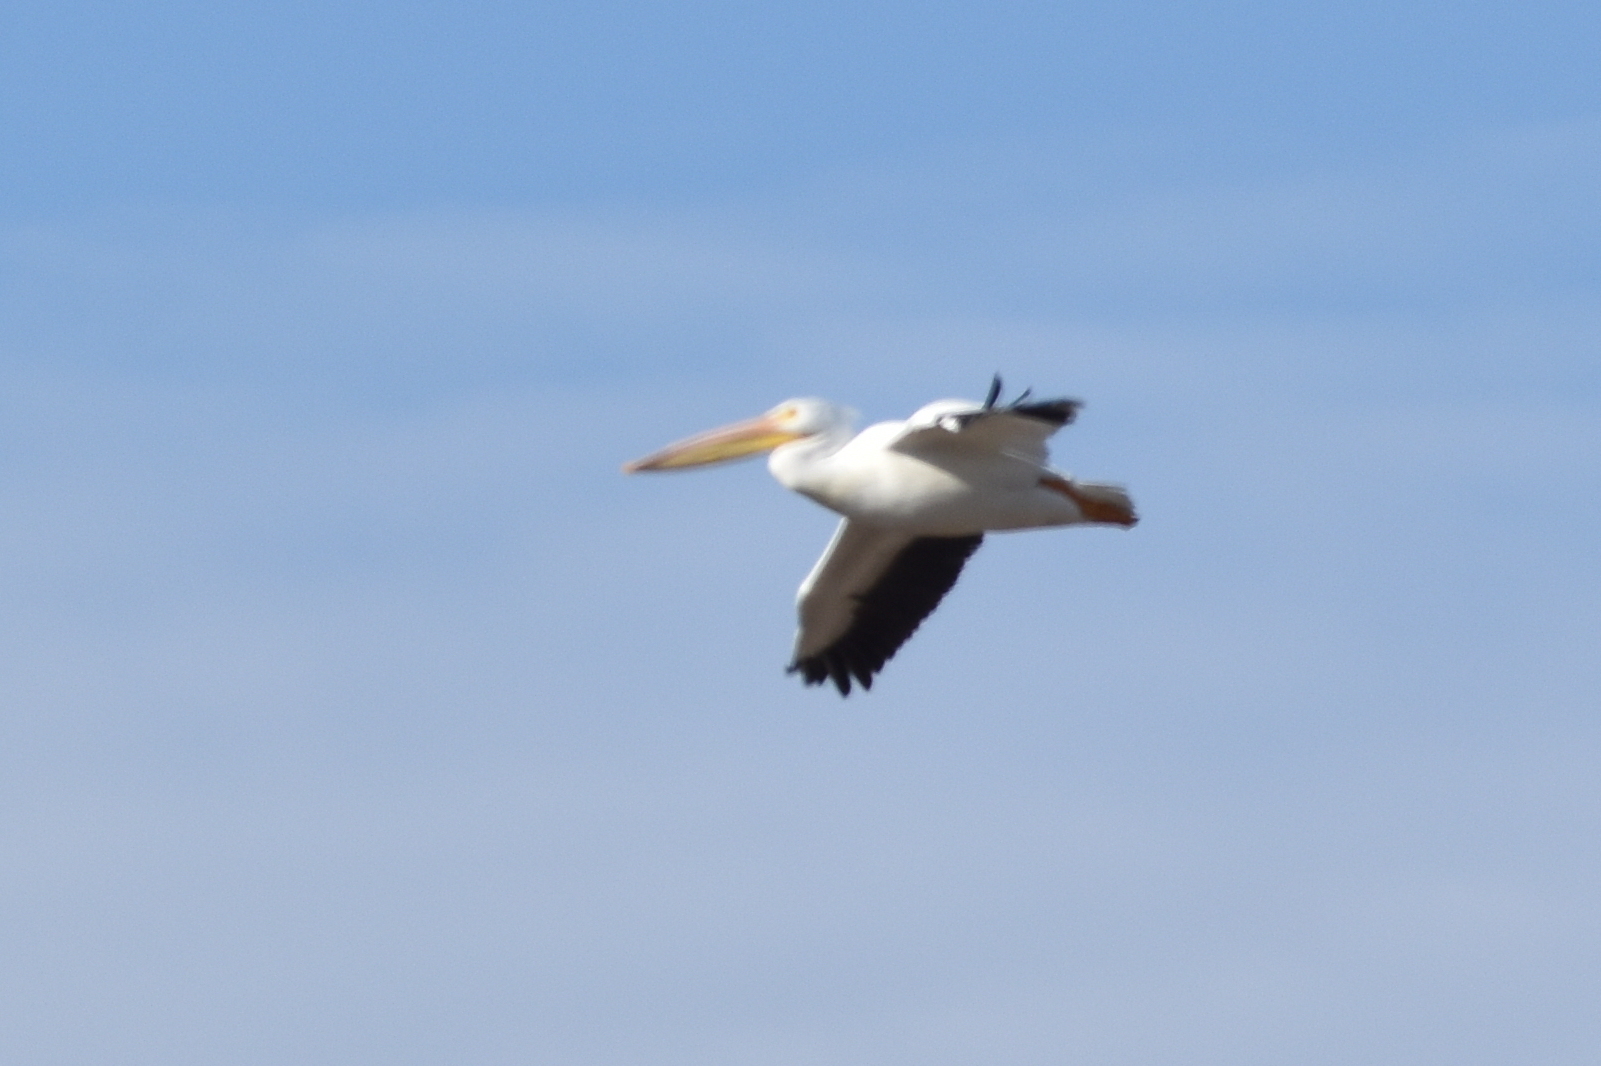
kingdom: Animalia
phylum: Chordata
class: Aves
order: Pelecaniformes
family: Pelecanidae
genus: Pelecanus
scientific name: Pelecanus erythrorhynchos
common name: American white pelican
